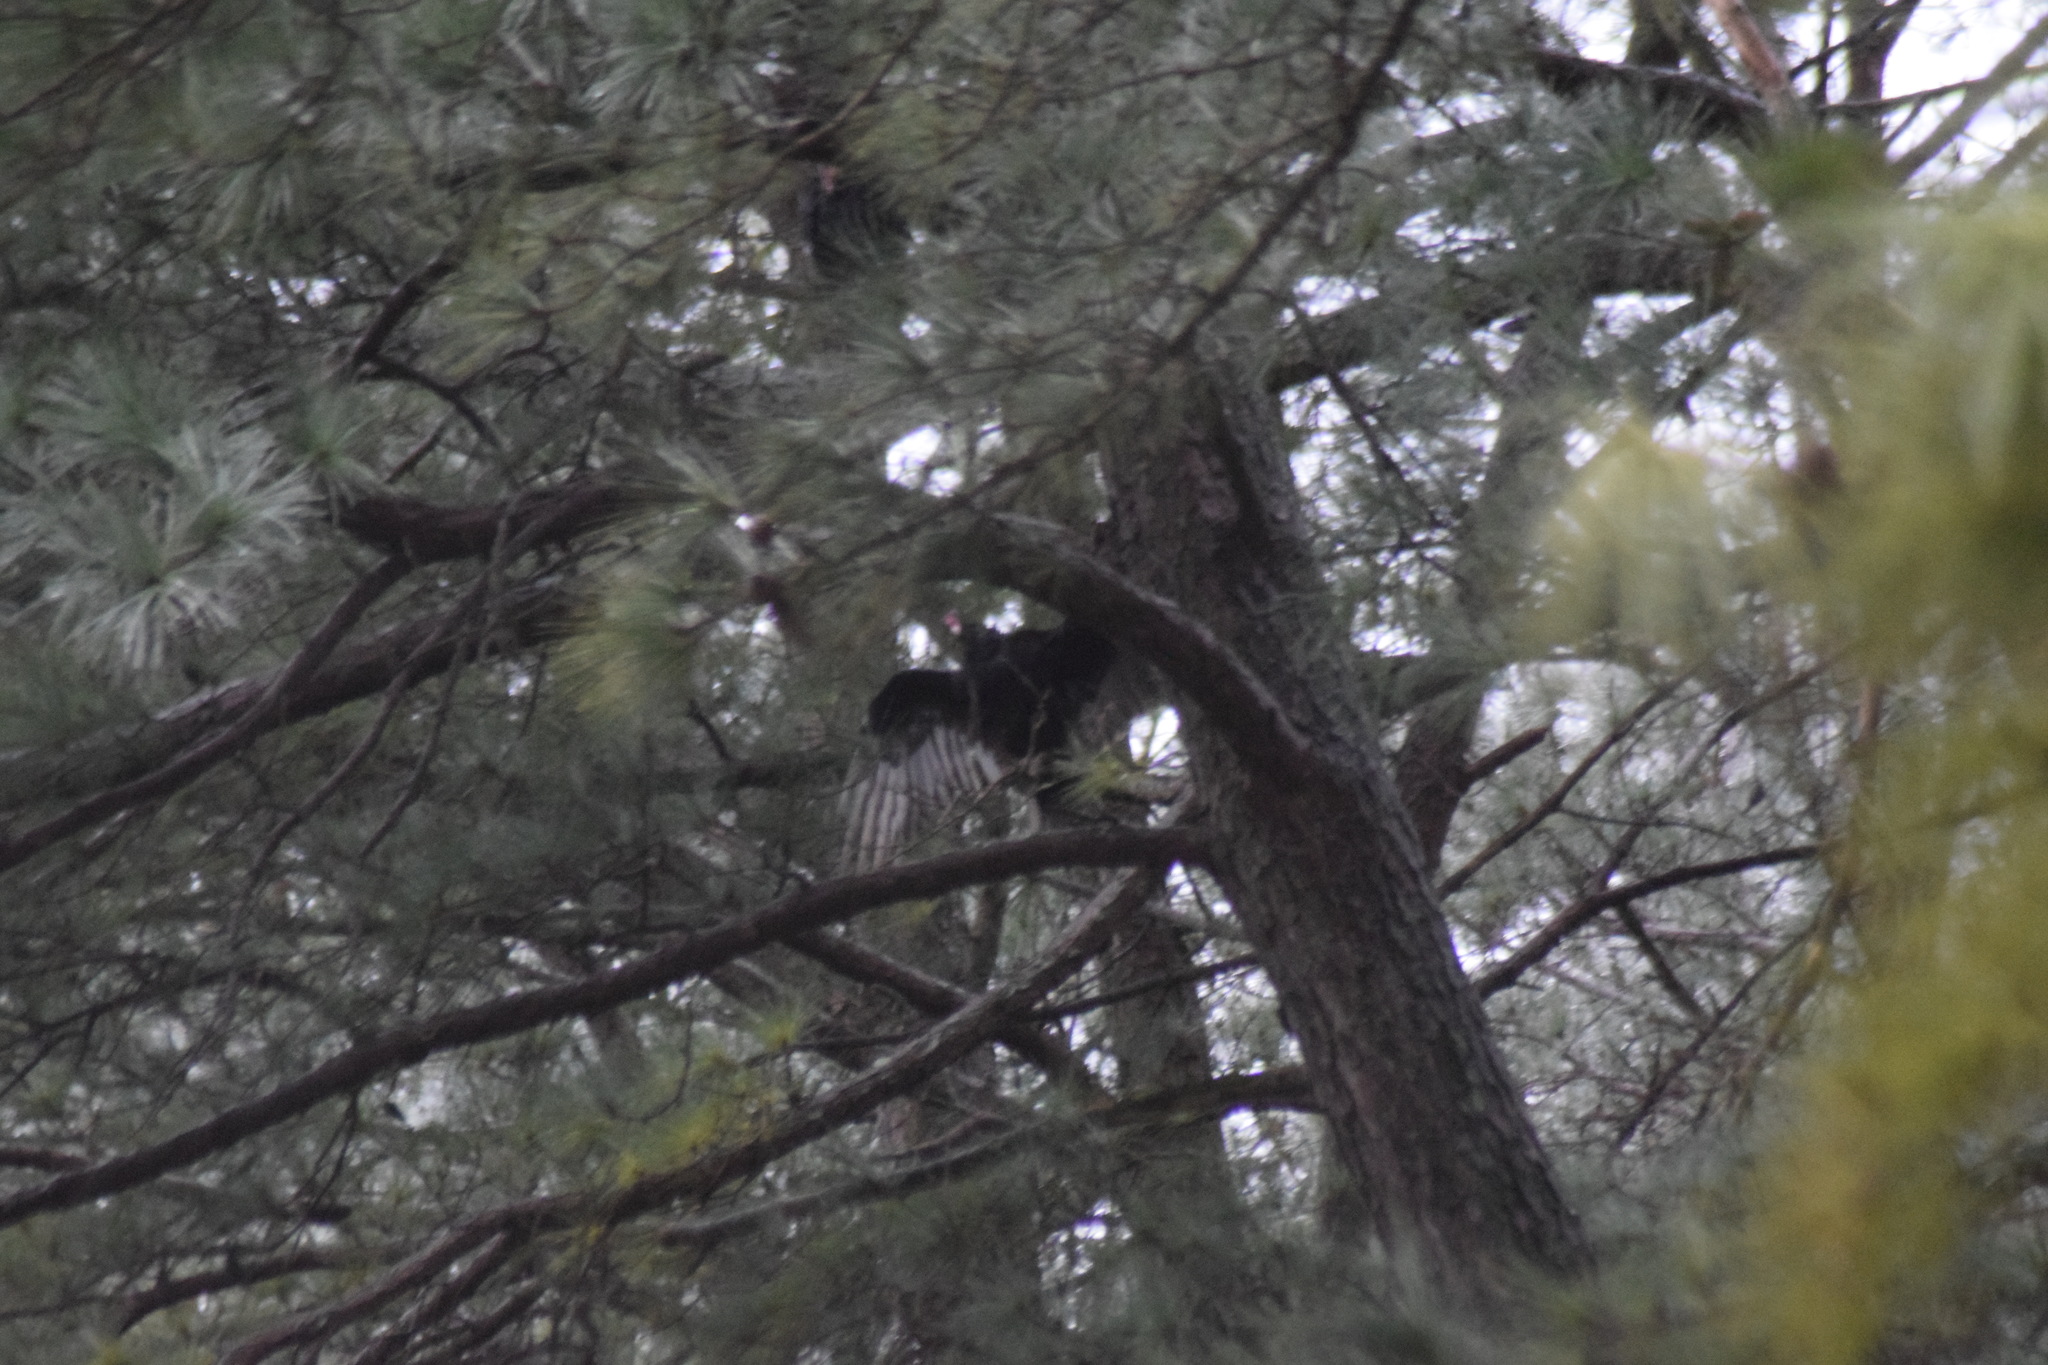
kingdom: Animalia
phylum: Chordata
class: Aves
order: Accipitriformes
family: Cathartidae
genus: Cathartes
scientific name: Cathartes aura
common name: Turkey vulture
